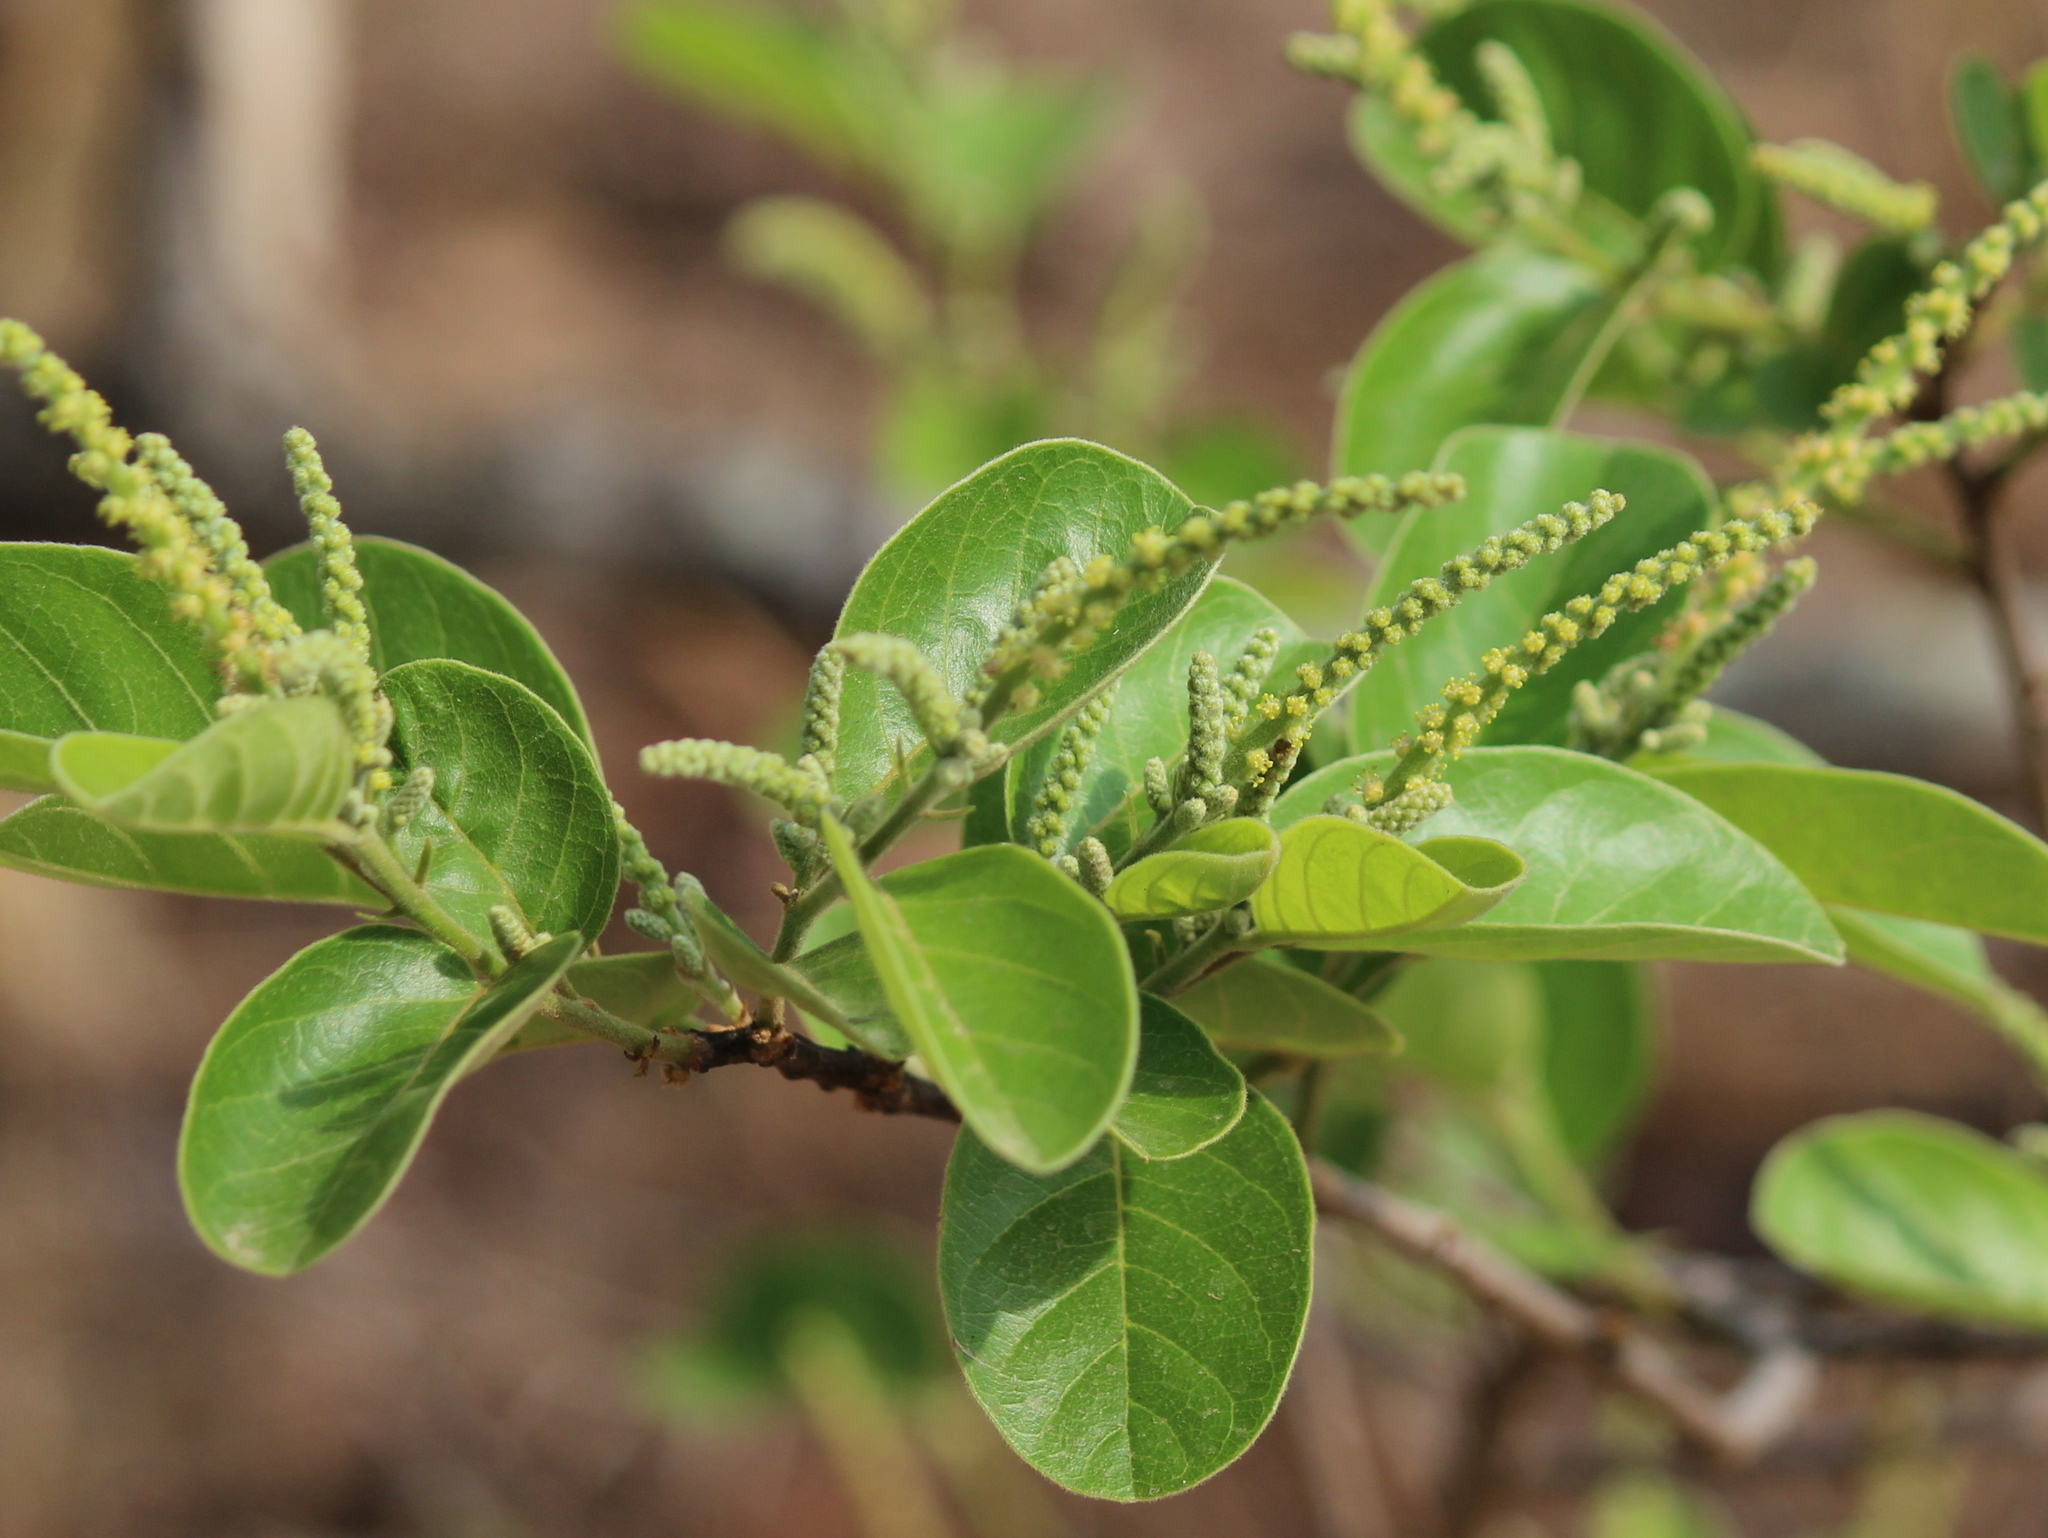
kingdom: Plantae
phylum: Tracheophyta
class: Magnoliopsida
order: Malpighiales
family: Phyllanthaceae
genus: Antidesma
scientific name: Antidesma ghaesembilla
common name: Black currant-tree
